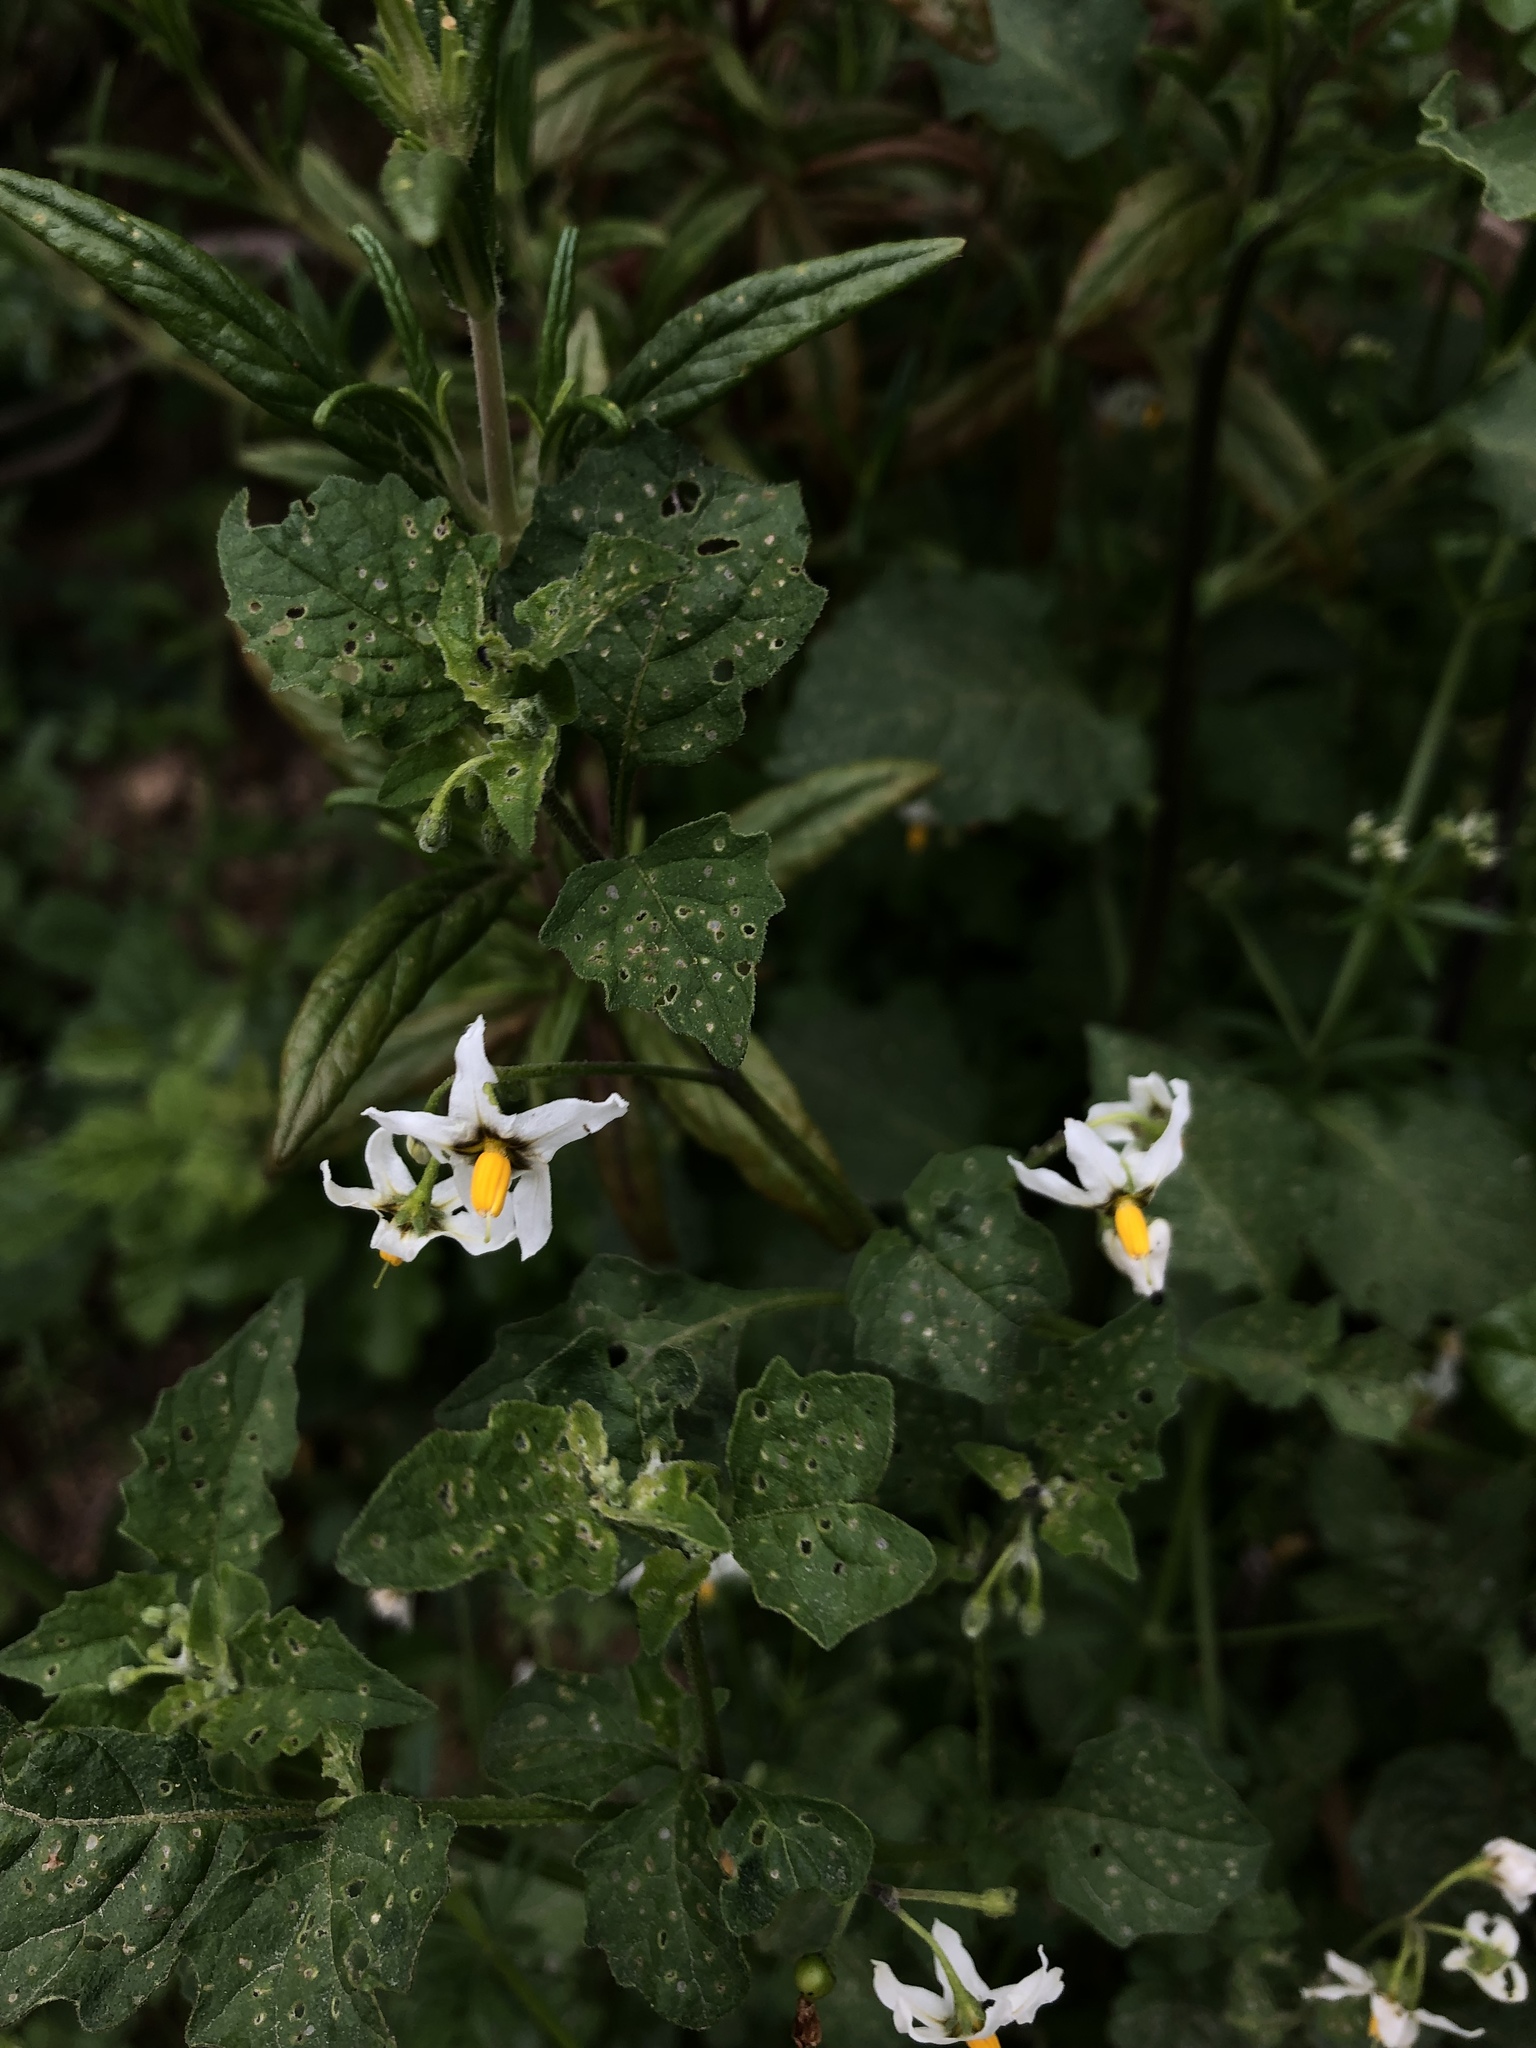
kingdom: Plantae
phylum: Tracheophyta
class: Magnoliopsida
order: Solanales
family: Solanaceae
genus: Solanum
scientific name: Solanum douglasii
